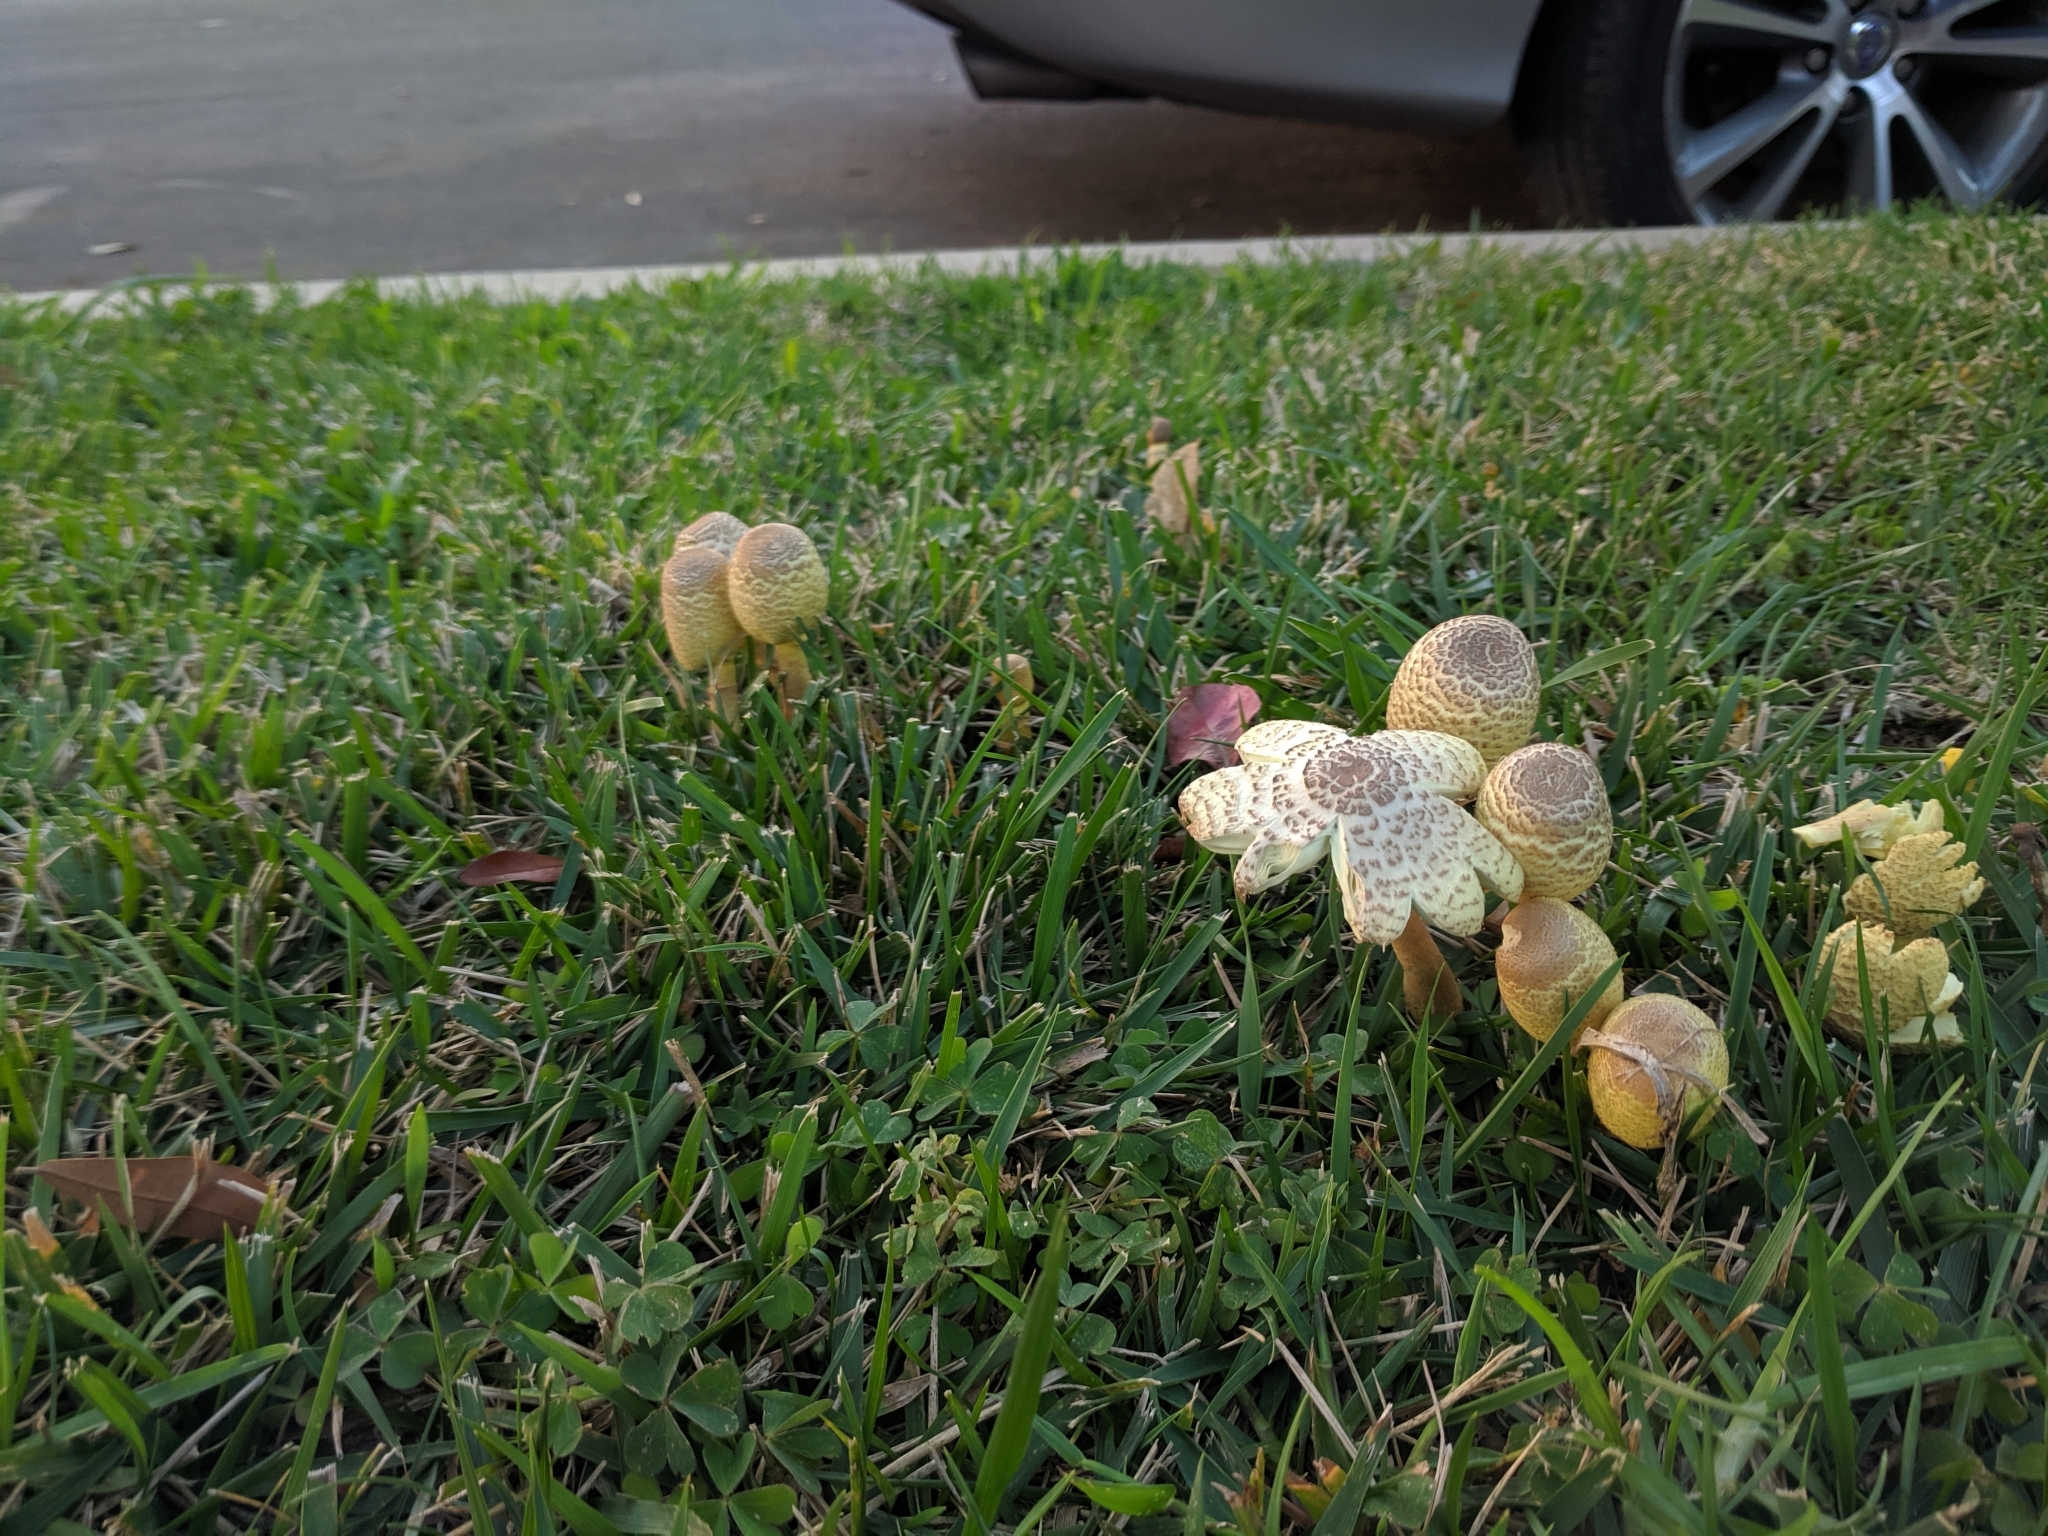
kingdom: Fungi
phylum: Basidiomycota
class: Agaricomycetes
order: Agaricales
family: Agaricaceae
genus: Leucocoprinus
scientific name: Leucocoprinus birnbaumii
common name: Plantpot dapperling
